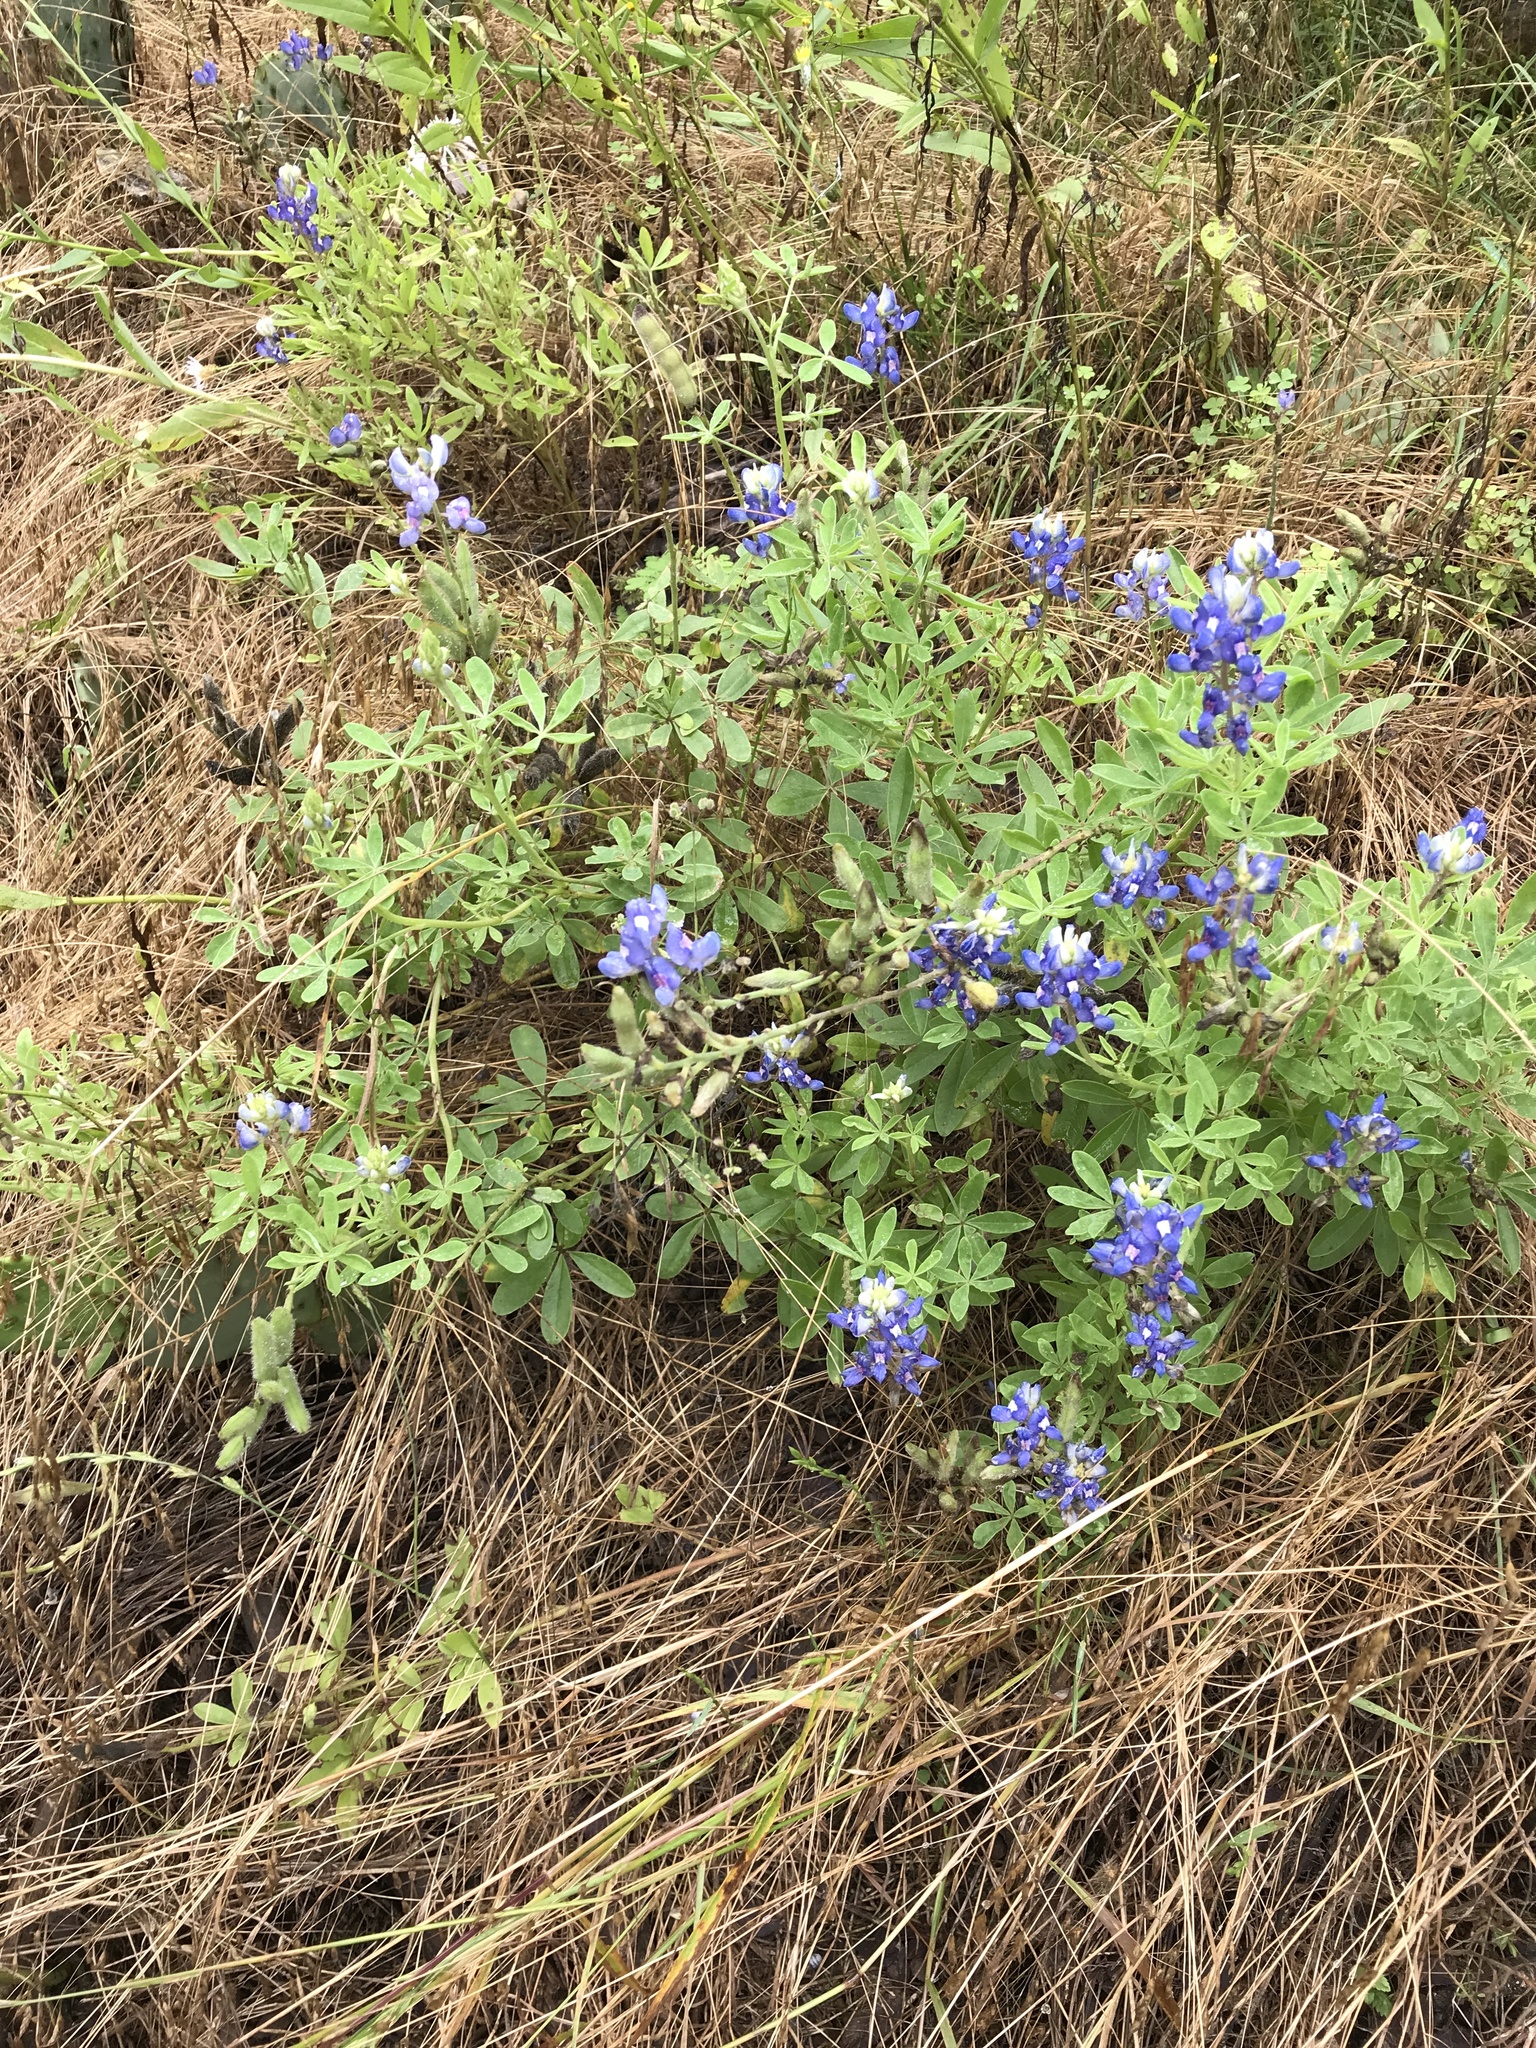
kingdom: Plantae
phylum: Tracheophyta
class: Magnoliopsida
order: Fabales
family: Fabaceae
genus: Lupinus
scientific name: Lupinus texensis
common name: Texas bluebonnet
